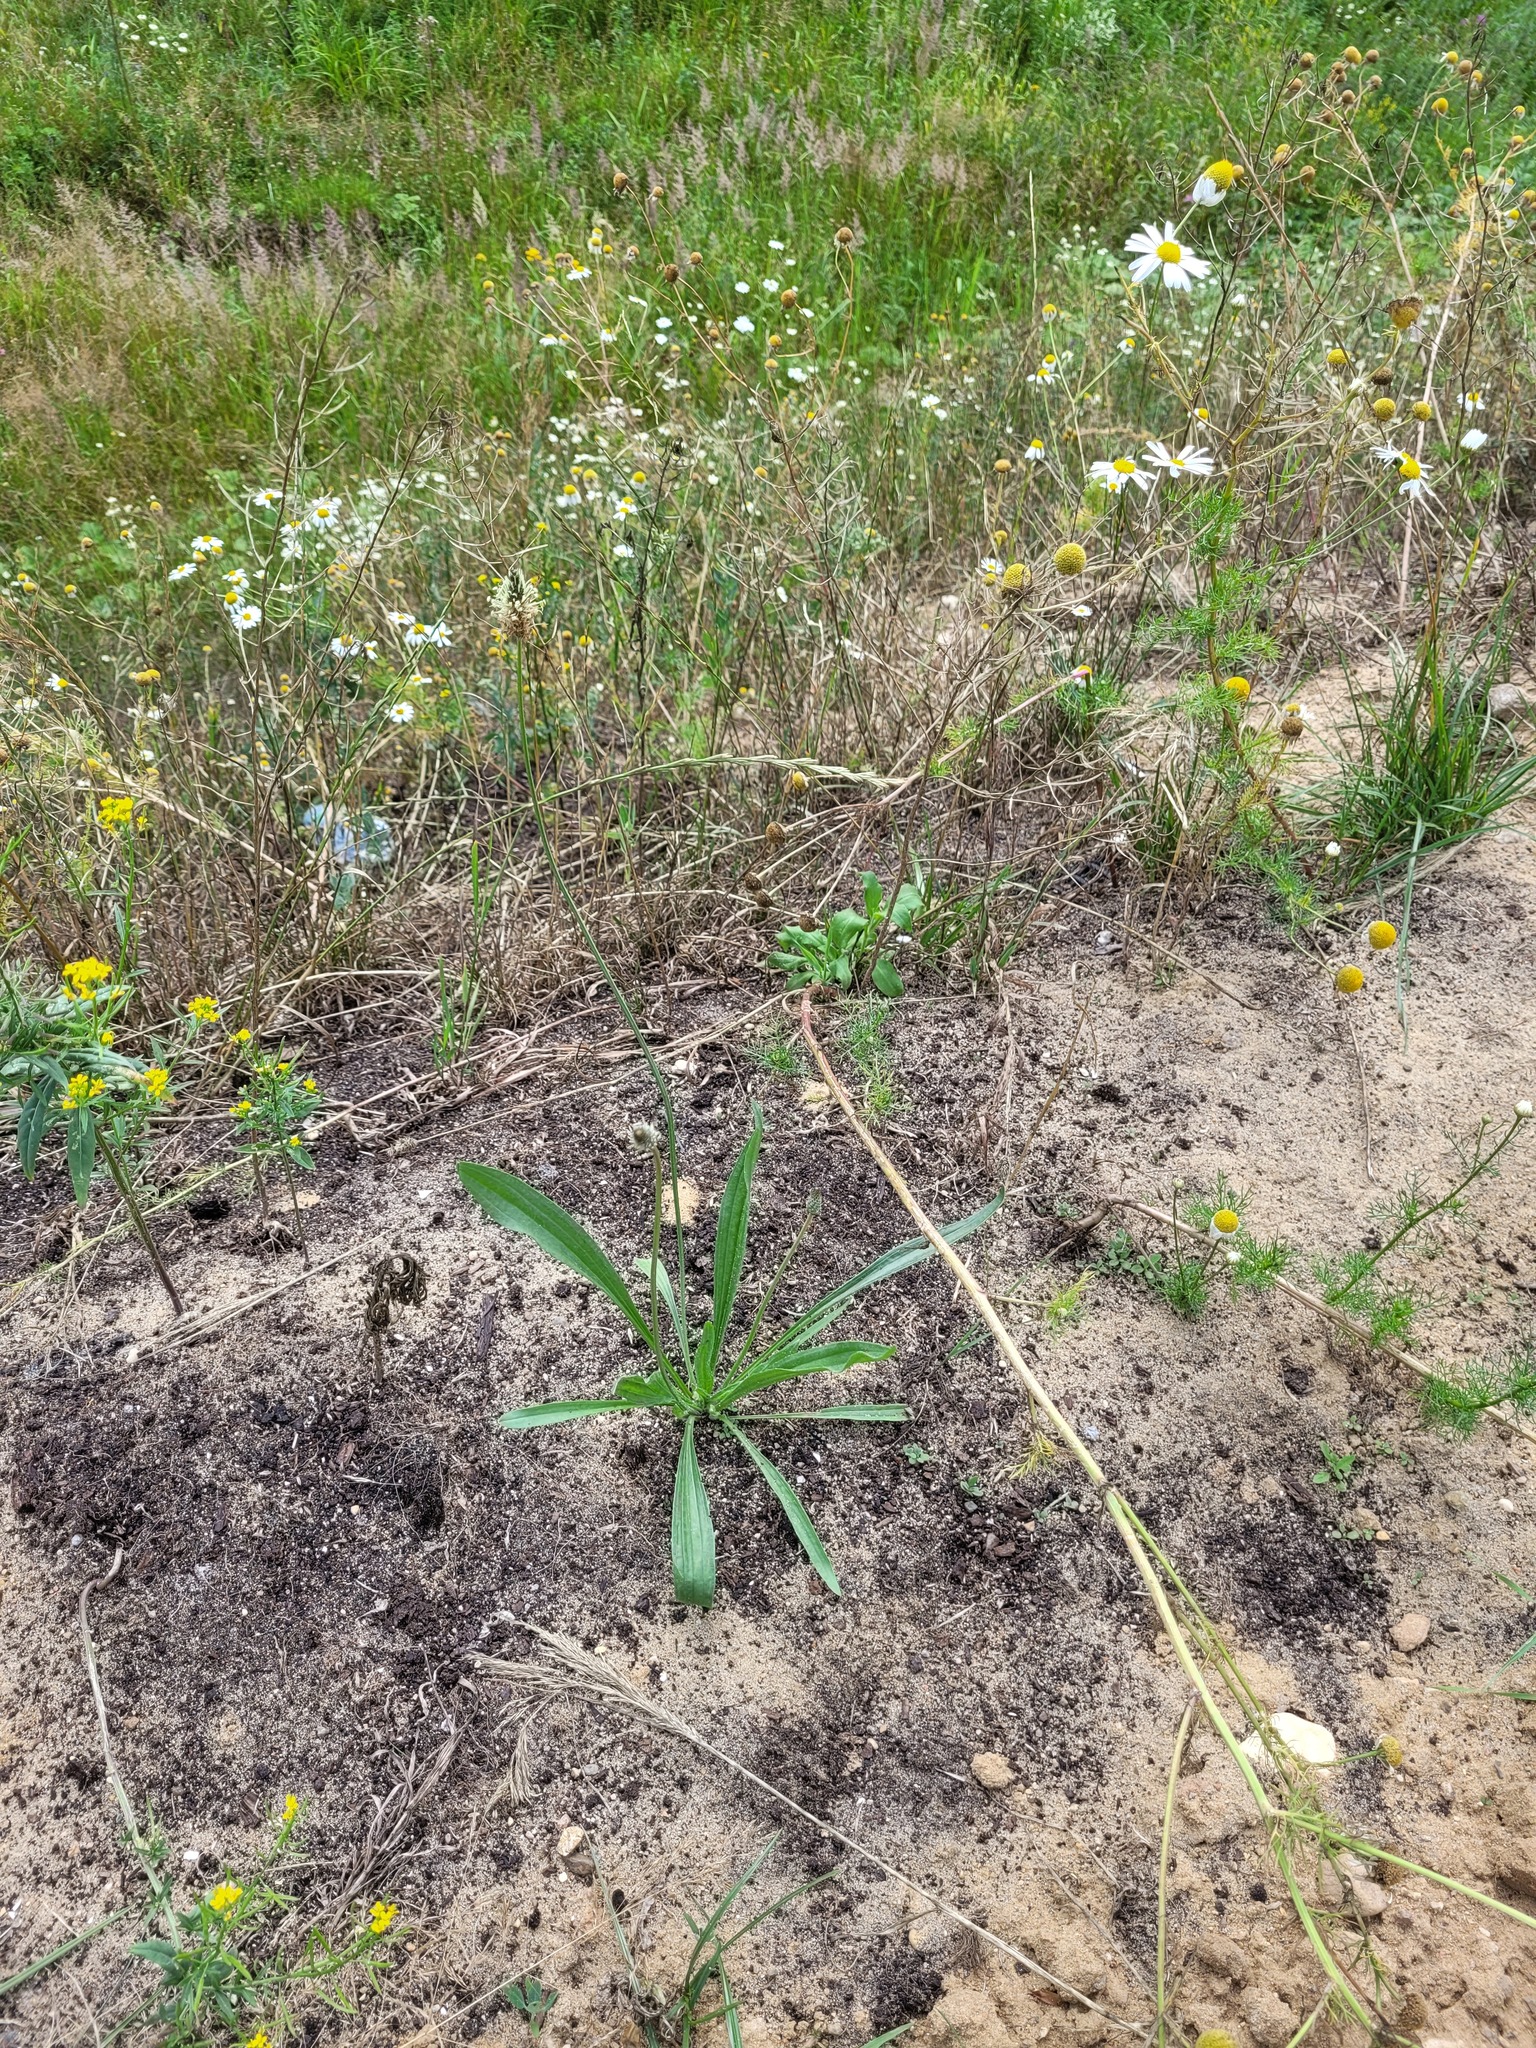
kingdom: Plantae
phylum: Tracheophyta
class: Magnoliopsida
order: Lamiales
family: Plantaginaceae
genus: Plantago
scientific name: Plantago lanceolata
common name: Ribwort plantain
